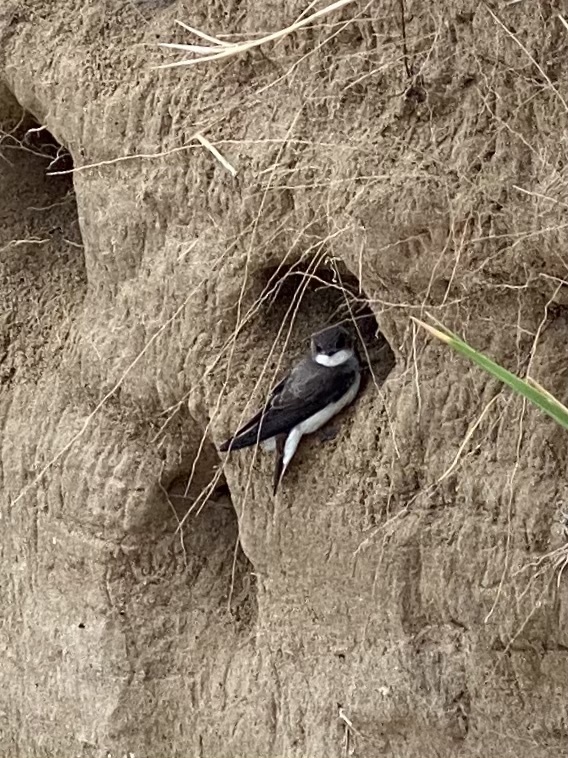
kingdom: Animalia
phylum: Chordata
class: Aves
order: Passeriformes
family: Hirundinidae
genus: Riparia
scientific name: Riparia riparia
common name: Sand martin
